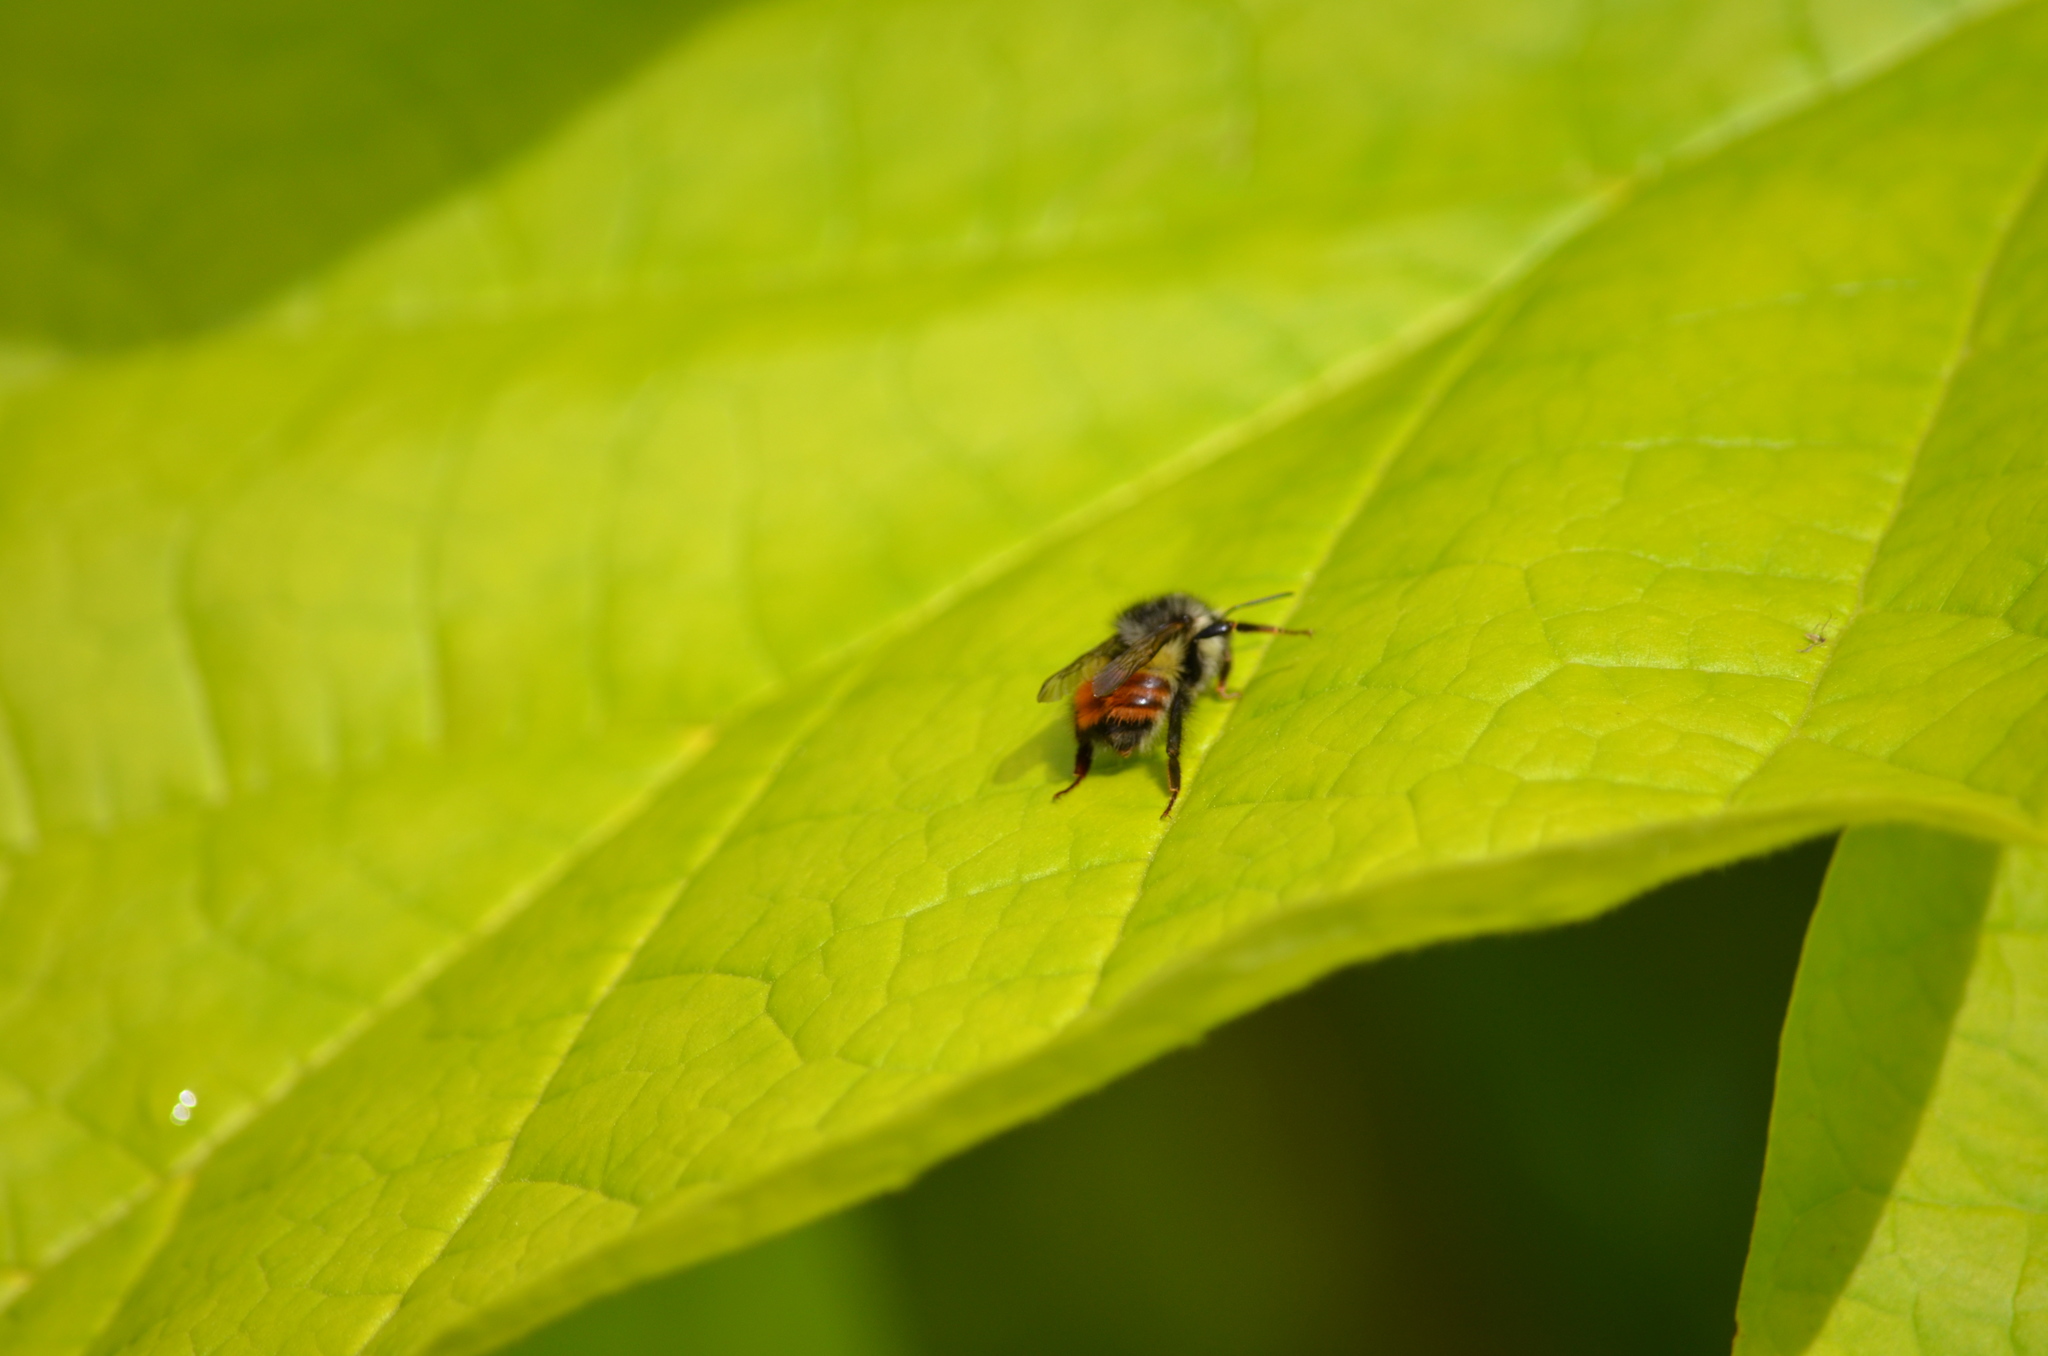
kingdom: Animalia
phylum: Arthropoda
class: Insecta
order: Hymenoptera
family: Apidae
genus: Bombus
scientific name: Bombus melanopygus
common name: Black tail bumble bee
